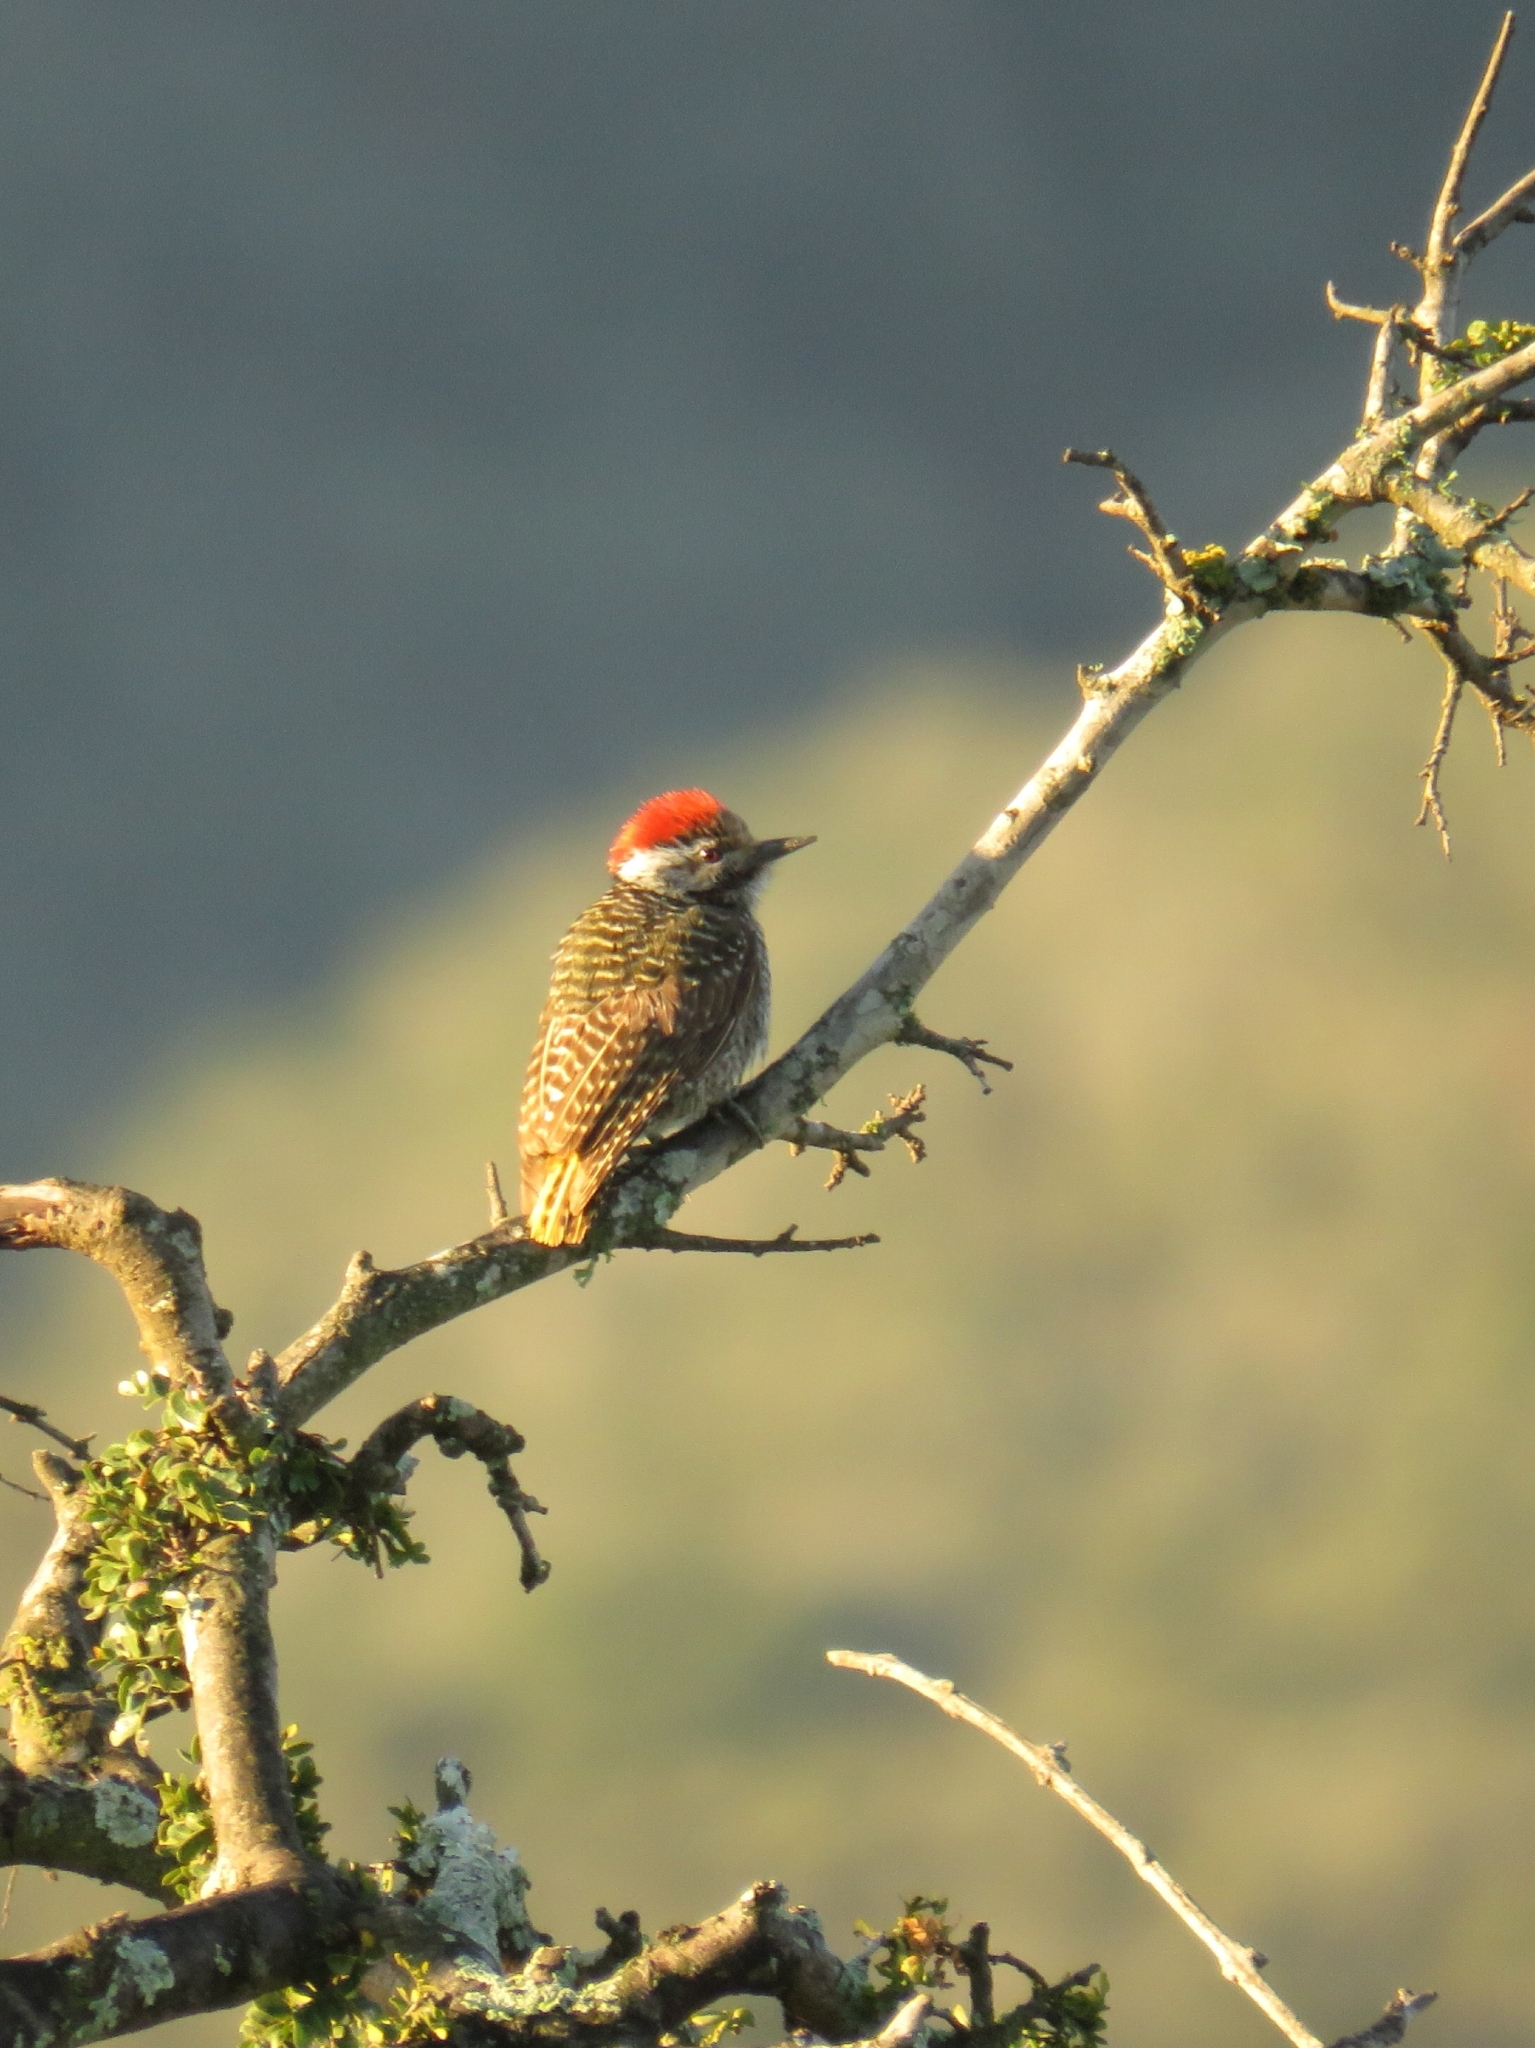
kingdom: Animalia
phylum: Chordata
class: Aves
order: Piciformes
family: Picidae
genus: Dendropicos
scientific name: Dendropicos fuscescens
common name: Cardinal woodpecker
